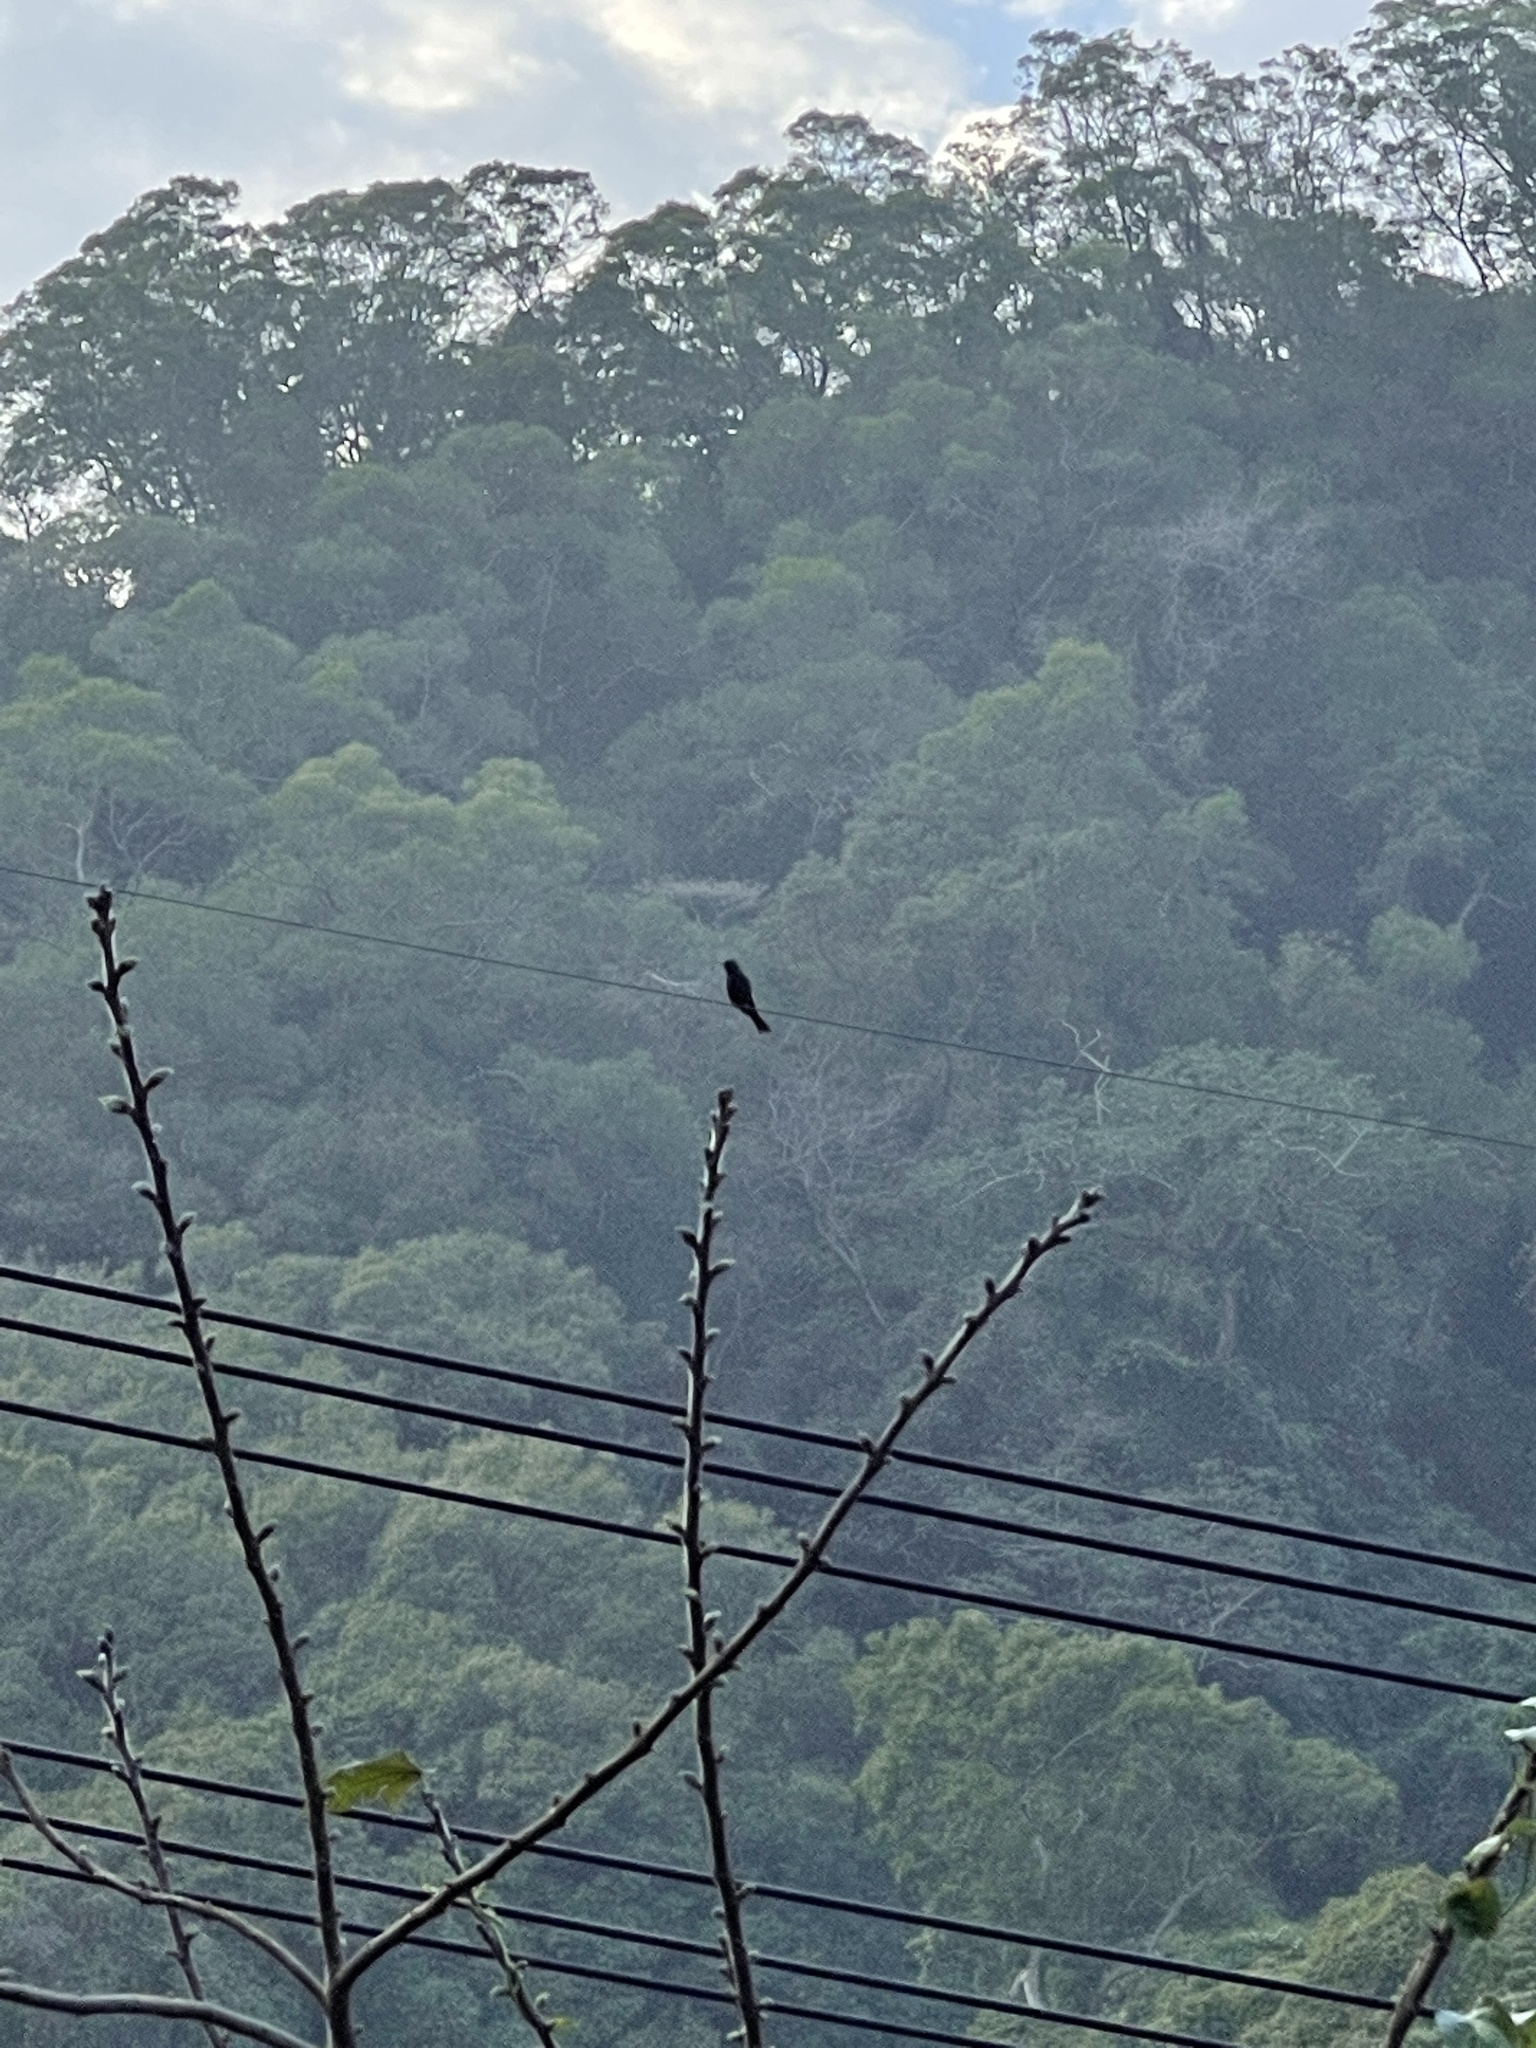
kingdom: Animalia
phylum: Chordata
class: Aves
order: Passeriformes
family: Pycnonotidae
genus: Hypsipetes
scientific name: Hypsipetes leucocephalus
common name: Black bulbul
